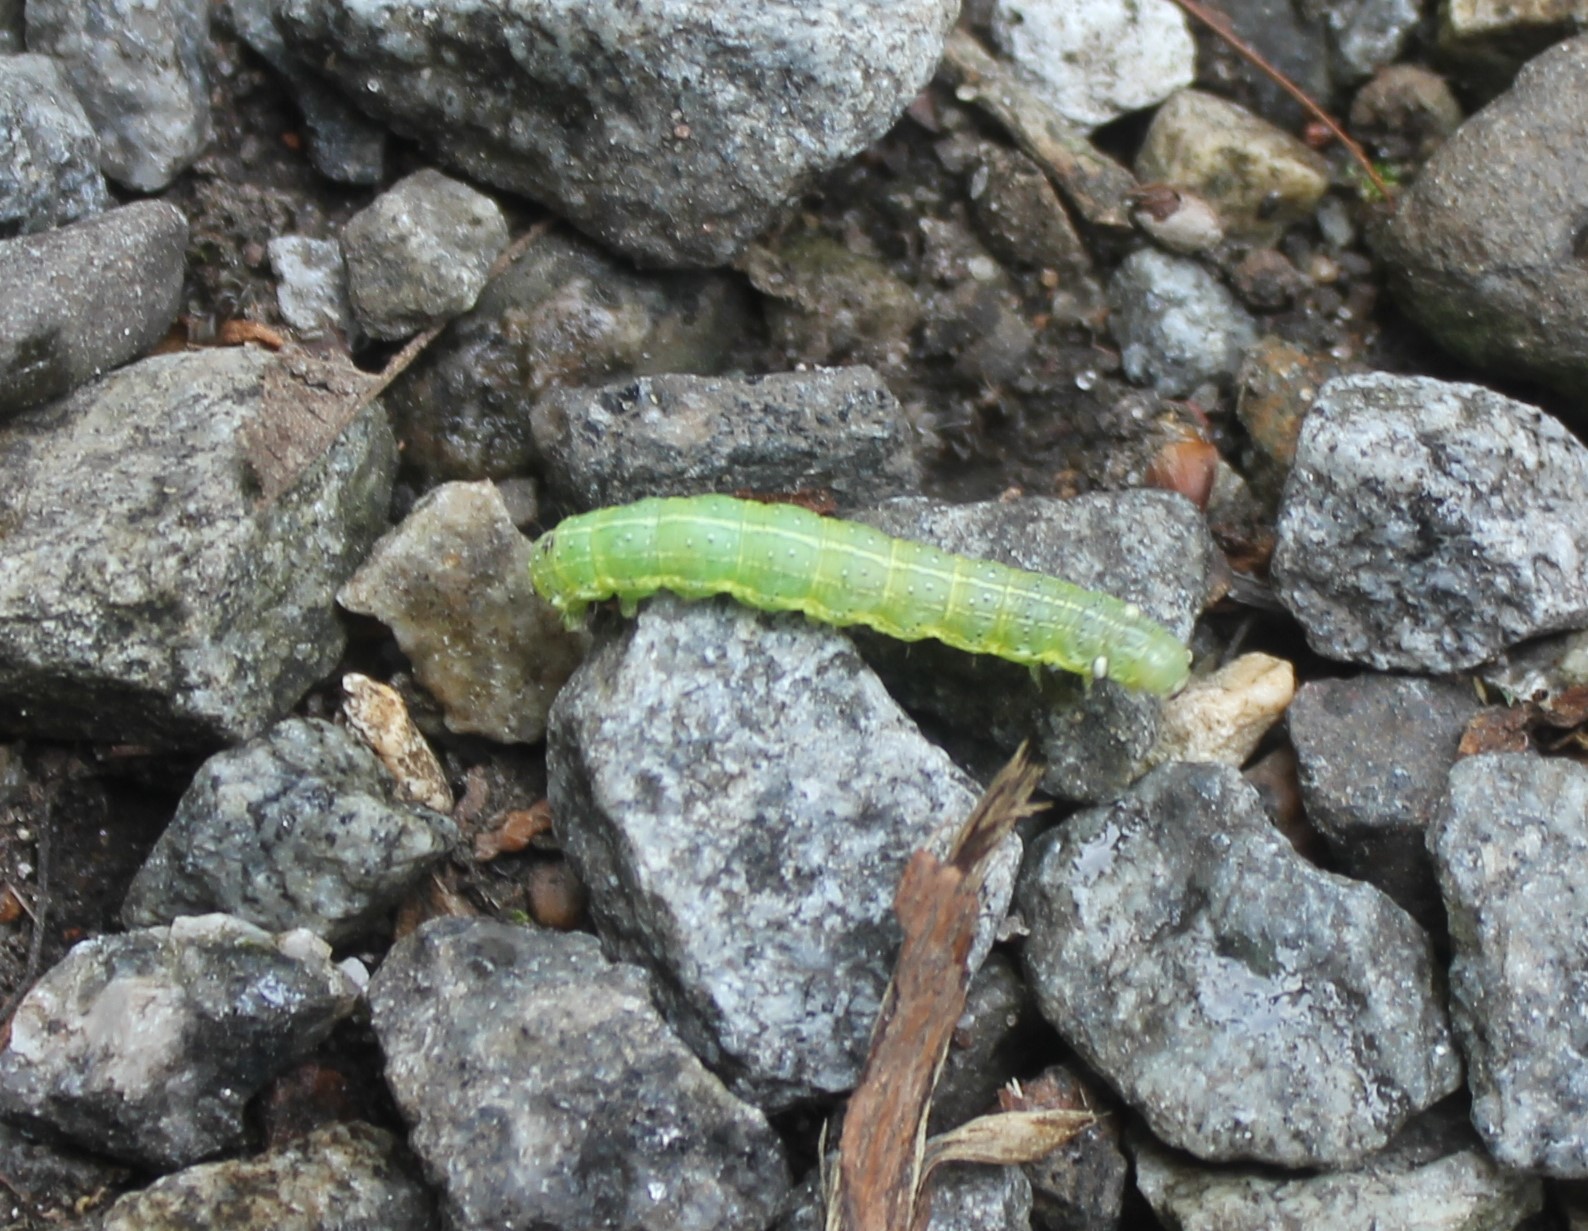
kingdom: Animalia
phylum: Arthropoda
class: Insecta
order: Lepidoptera
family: Noctuidae
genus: Cosmia
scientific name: Cosmia trapezina
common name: Dun-bar
